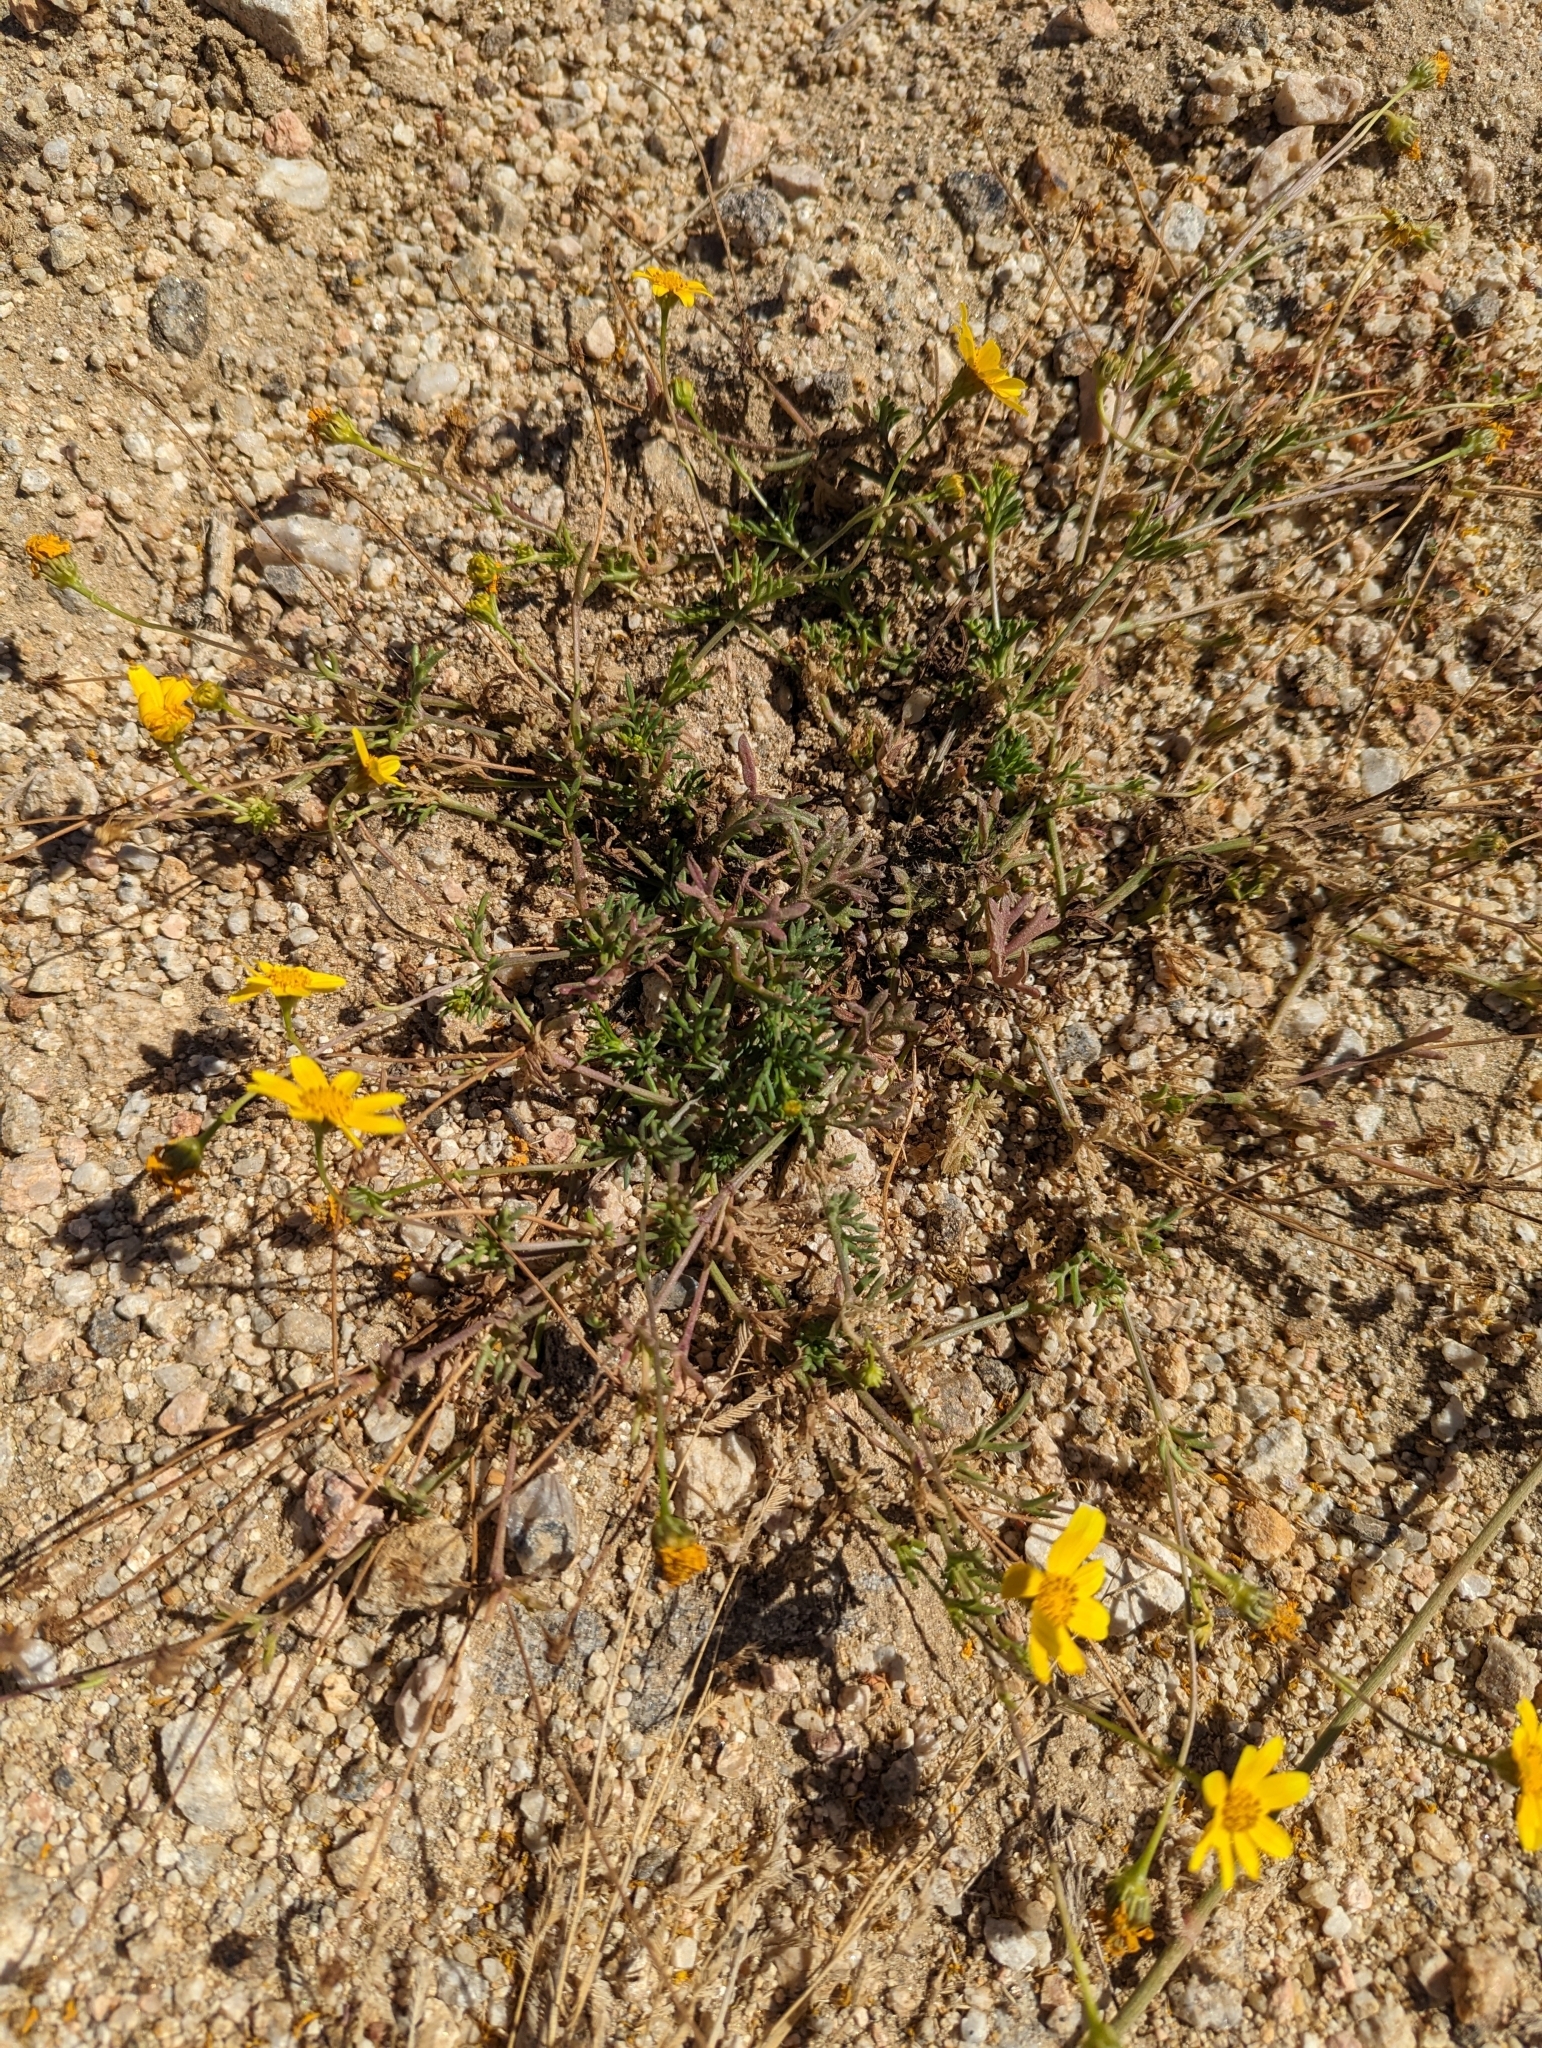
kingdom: Plantae
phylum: Tracheophyta
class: Magnoliopsida
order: Asterales
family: Asteraceae
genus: Bidens
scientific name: Bidens xanti
